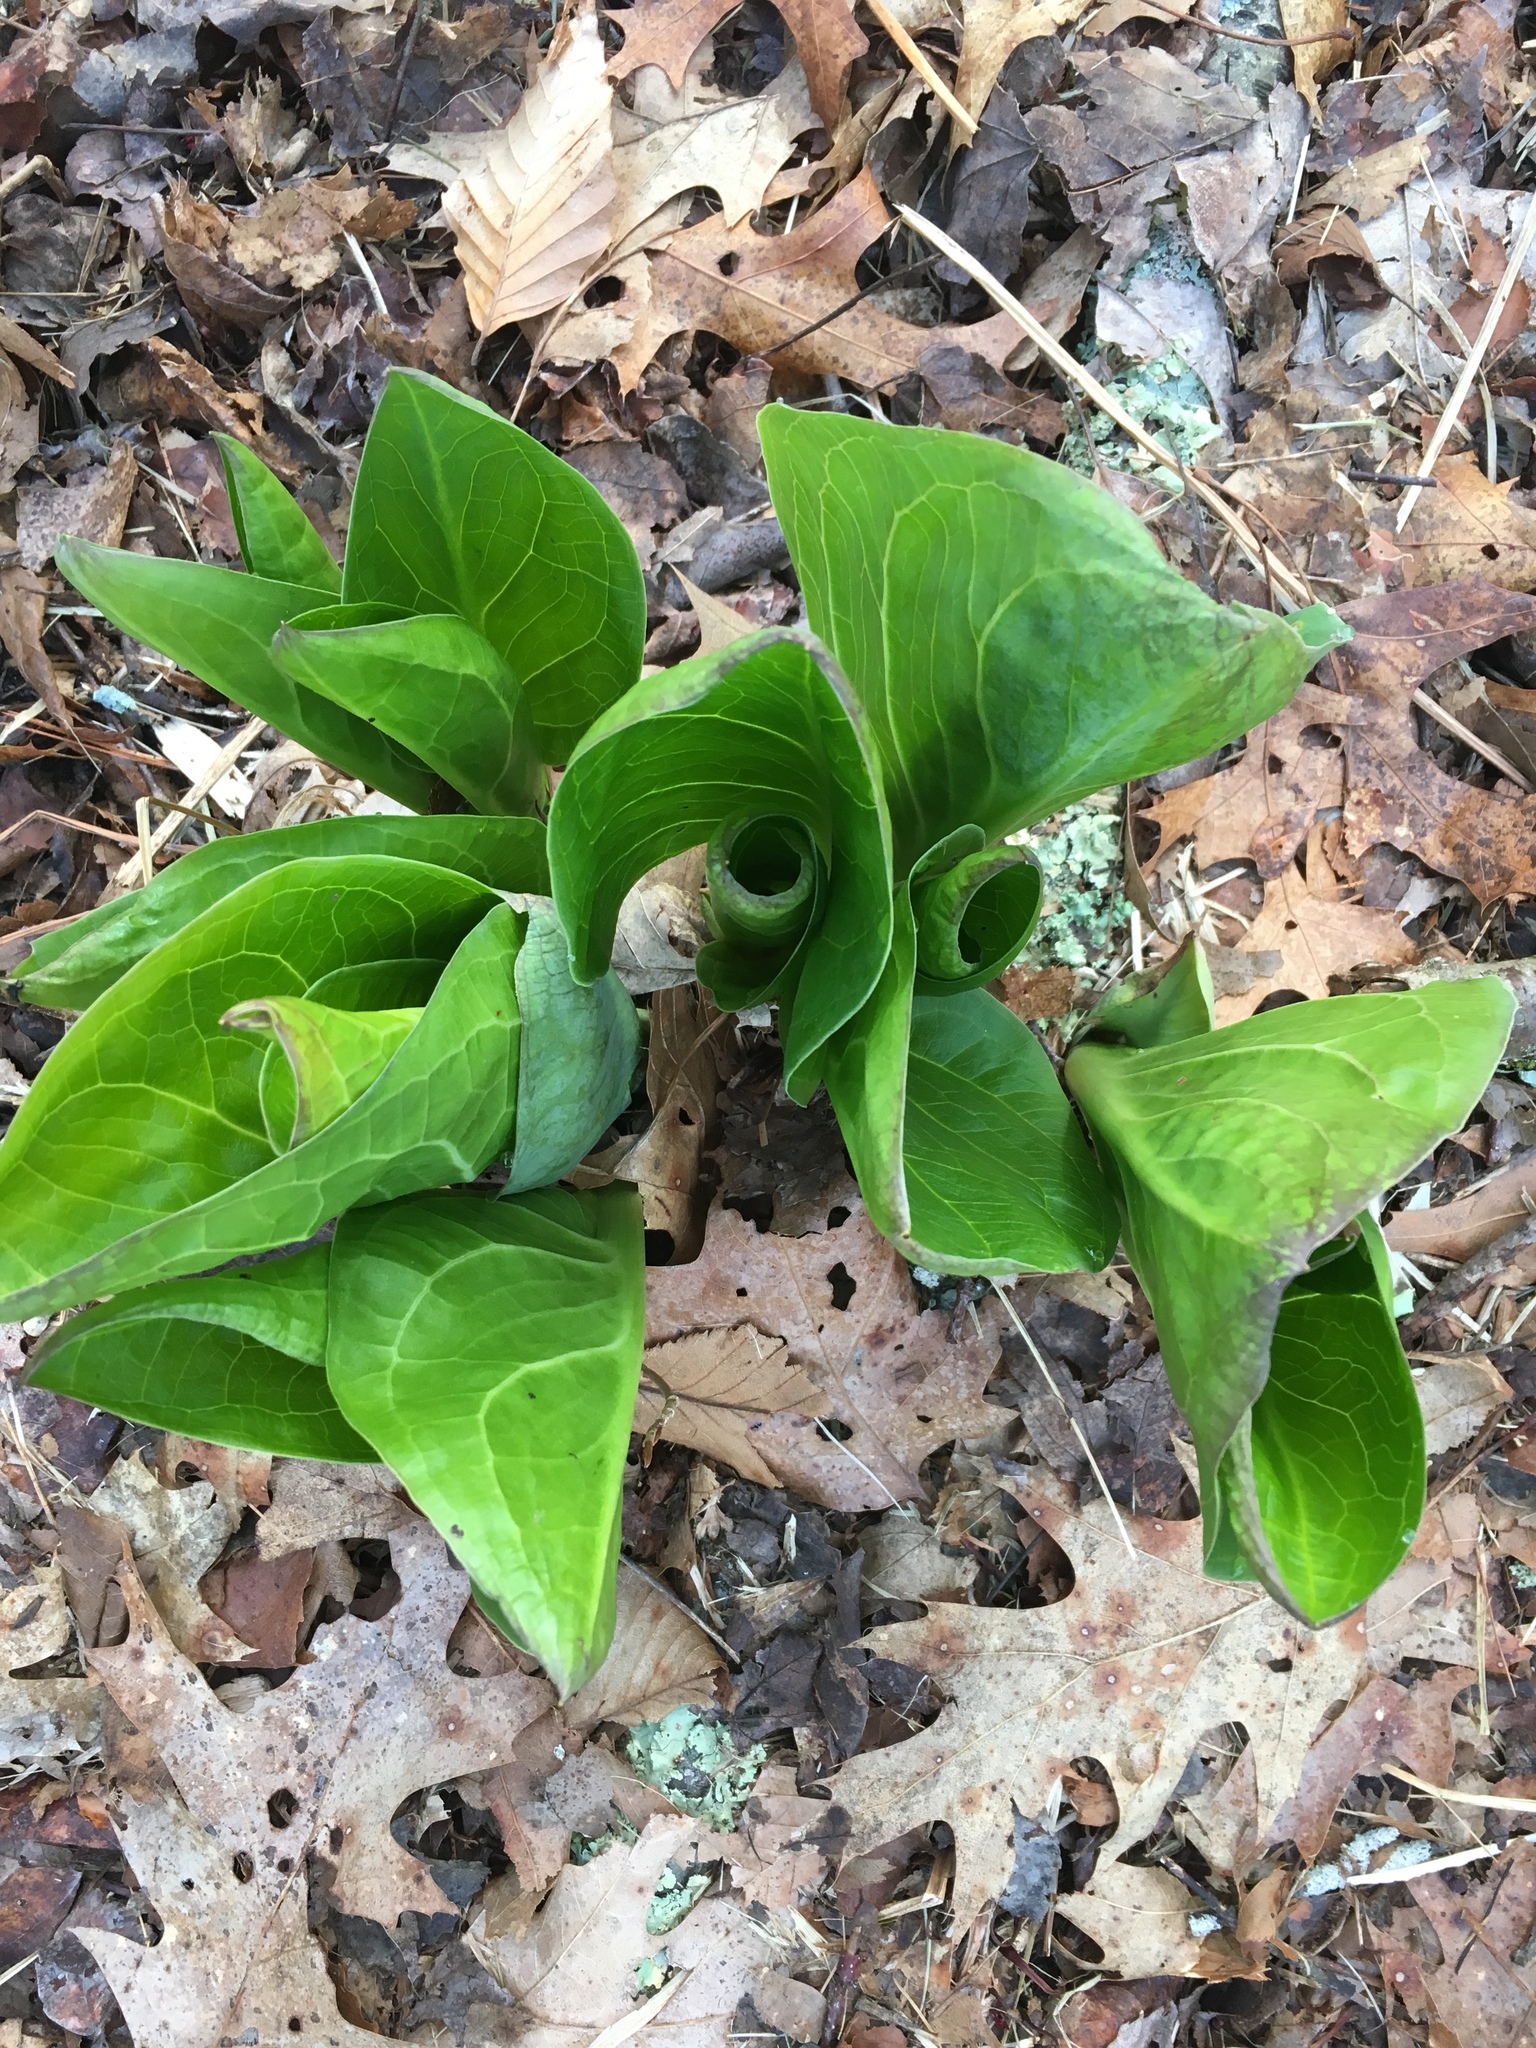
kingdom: Plantae
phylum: Tracheophyta
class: Liliopsida
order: Alismatales
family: Araceae
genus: Symplocarpus
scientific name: Symplocarpus foetidus
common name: Eastern skunk cabbage
